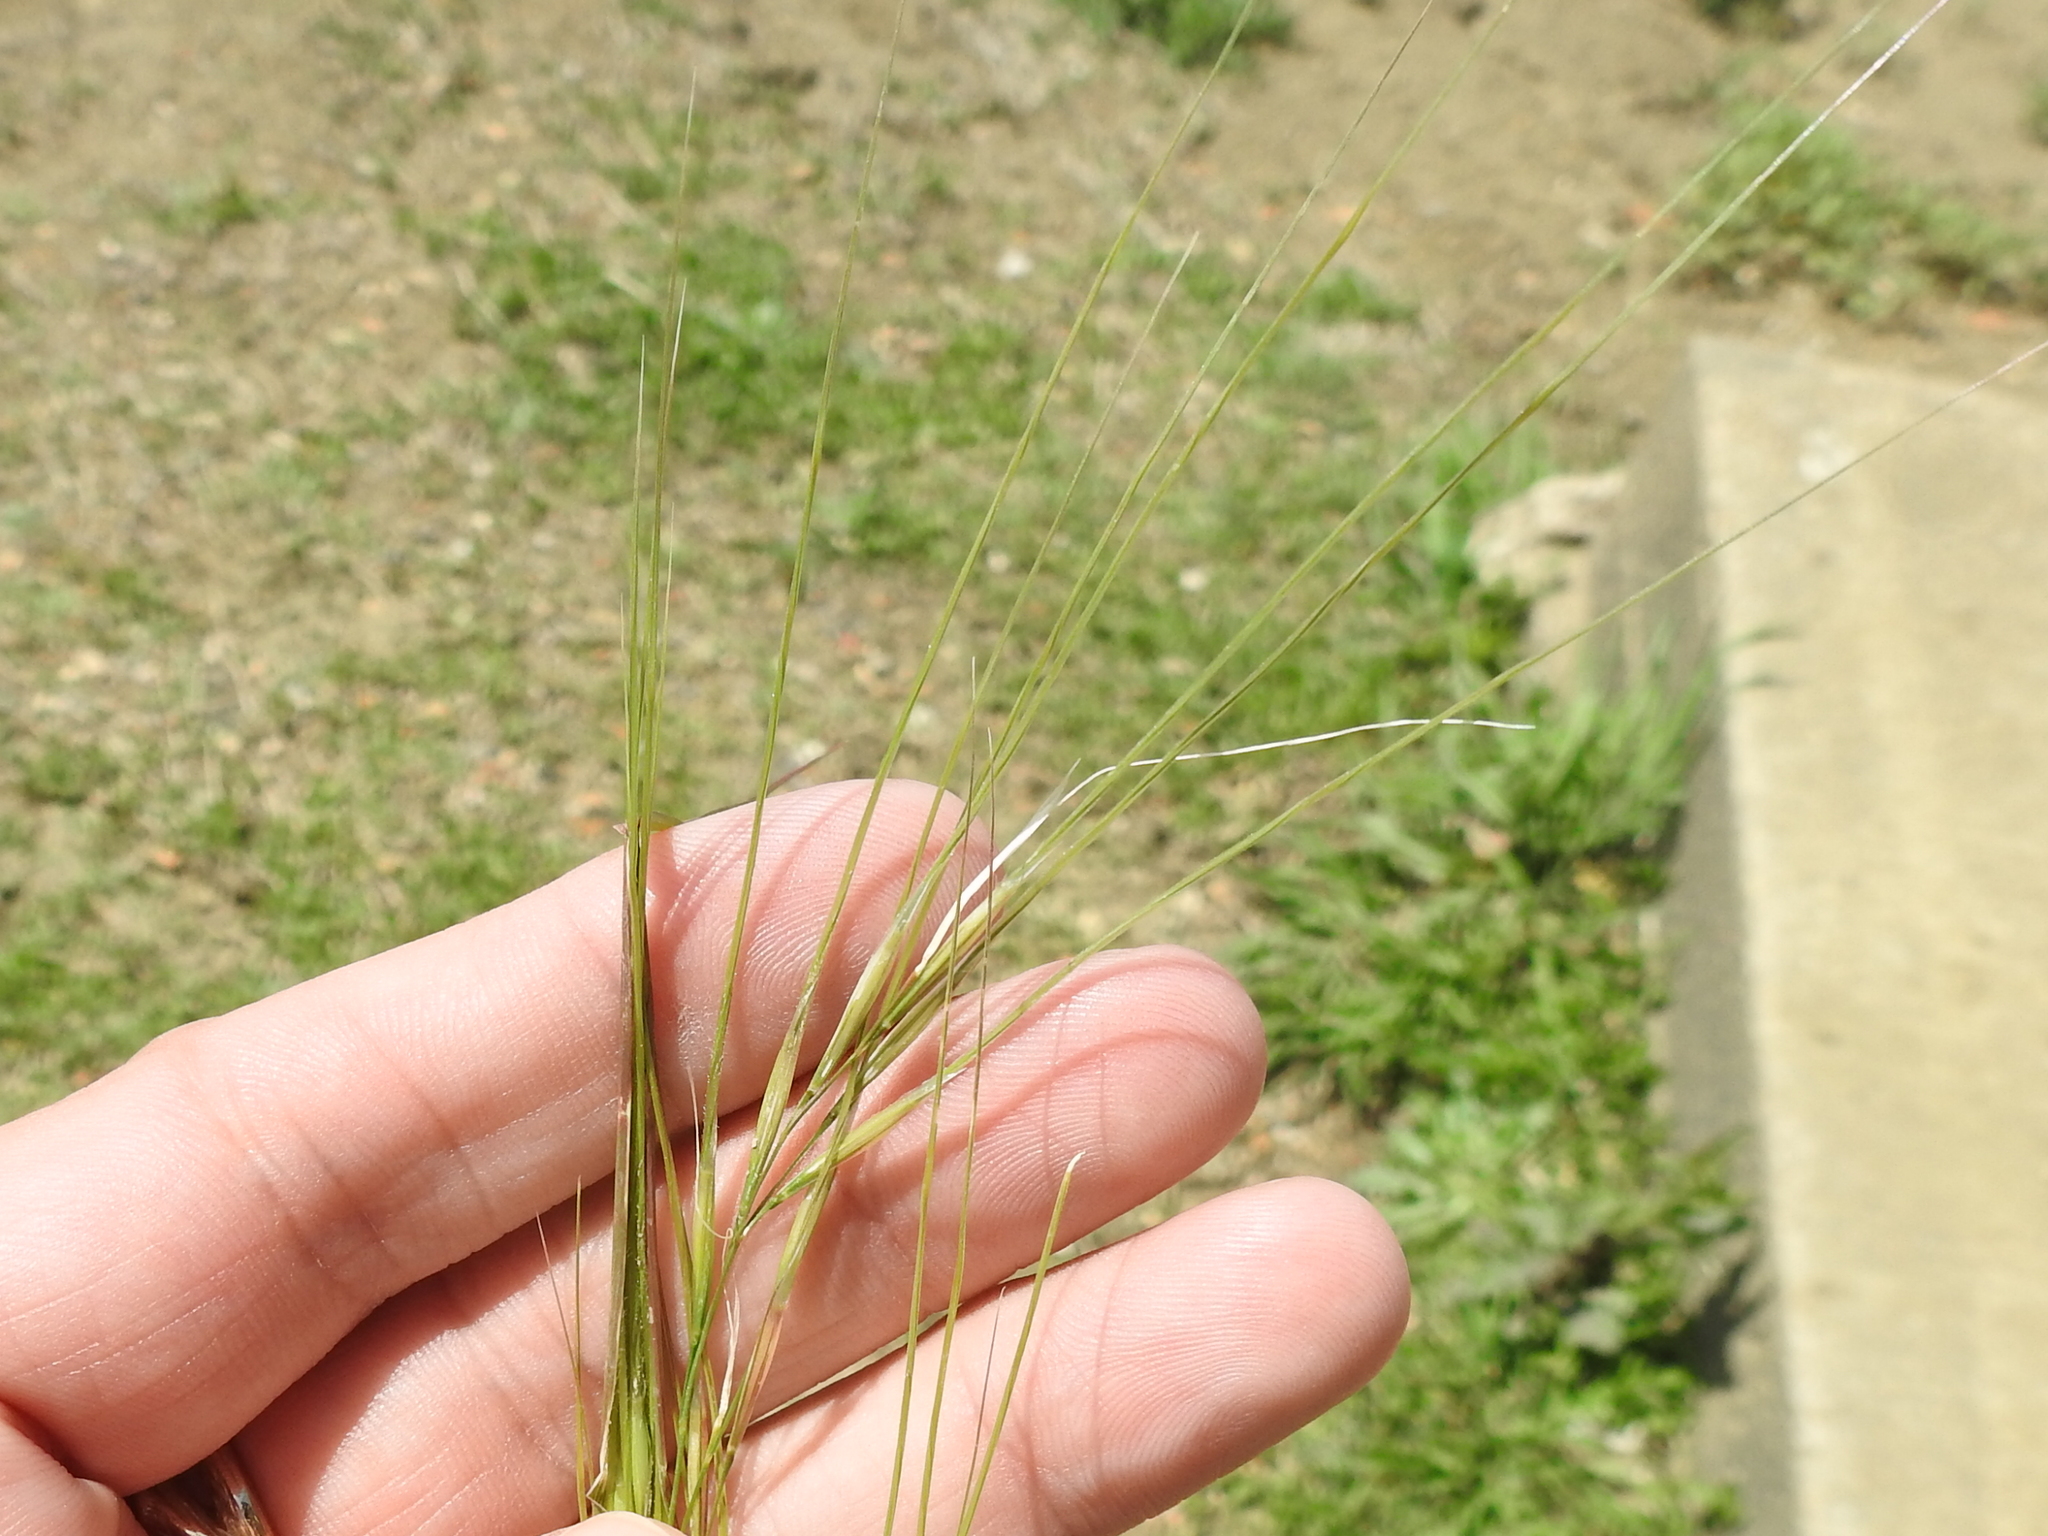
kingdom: Plantae
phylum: Tracheophyta
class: Liliopsida
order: Poales
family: Poaceae
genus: Nassella
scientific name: Nassella leucotricha
